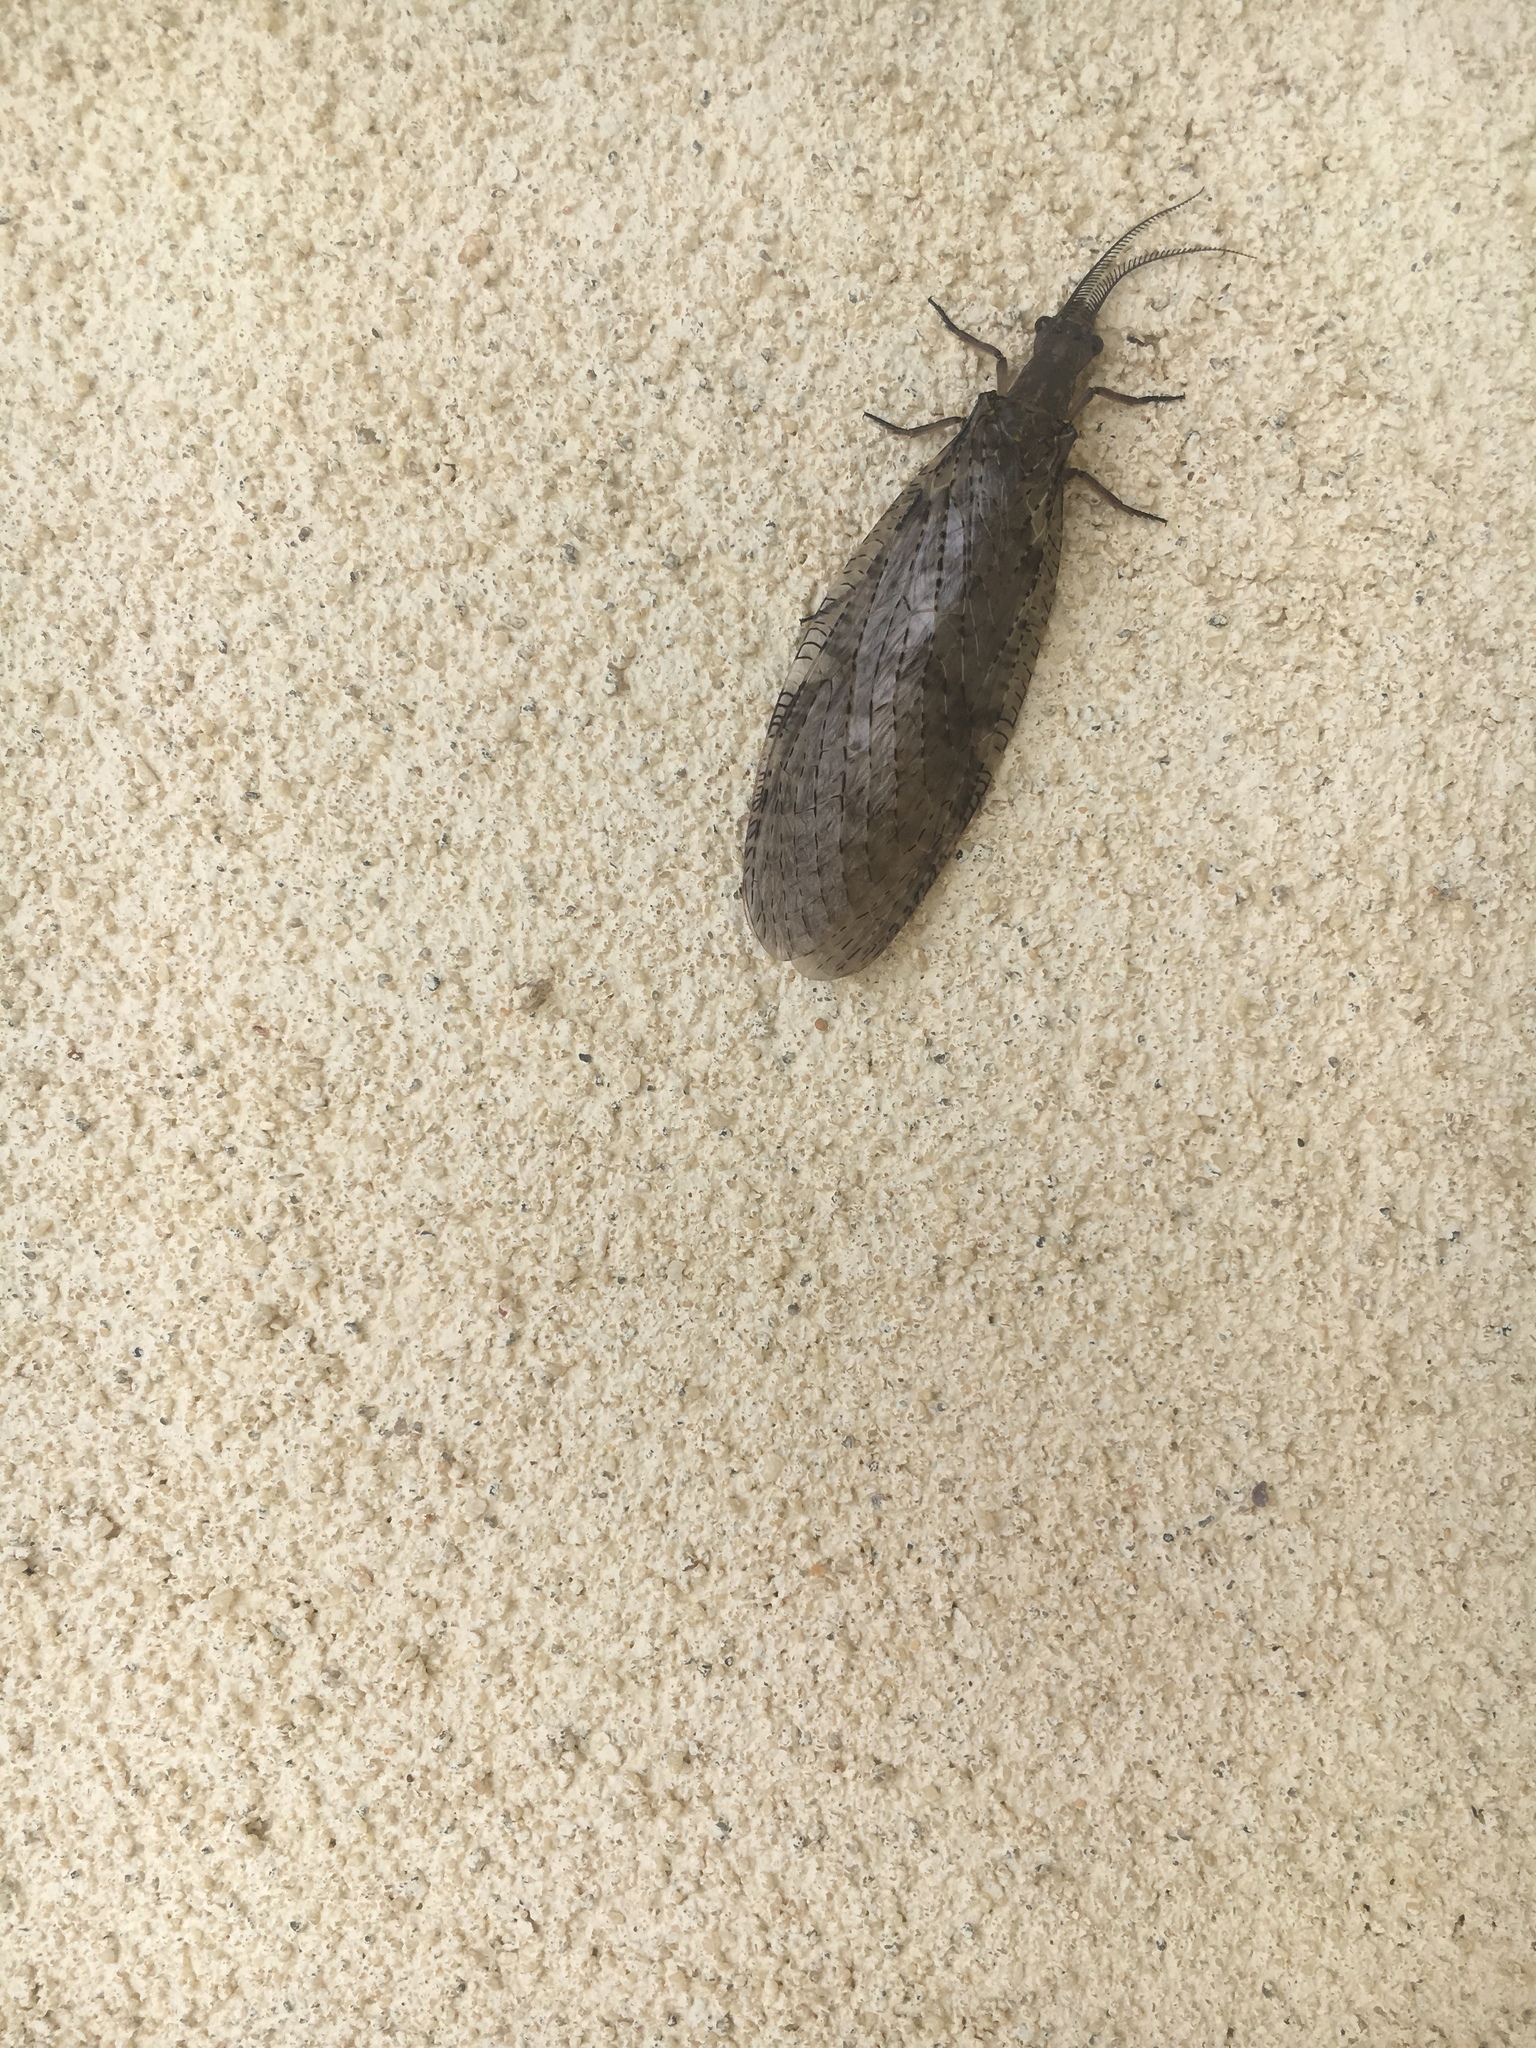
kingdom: Animalia
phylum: Arthropoda
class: Insecta
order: Megaloptera
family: Corydalidae
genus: Chauliodes
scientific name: Chauliodes pectinicornis
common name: Summer fishfly
